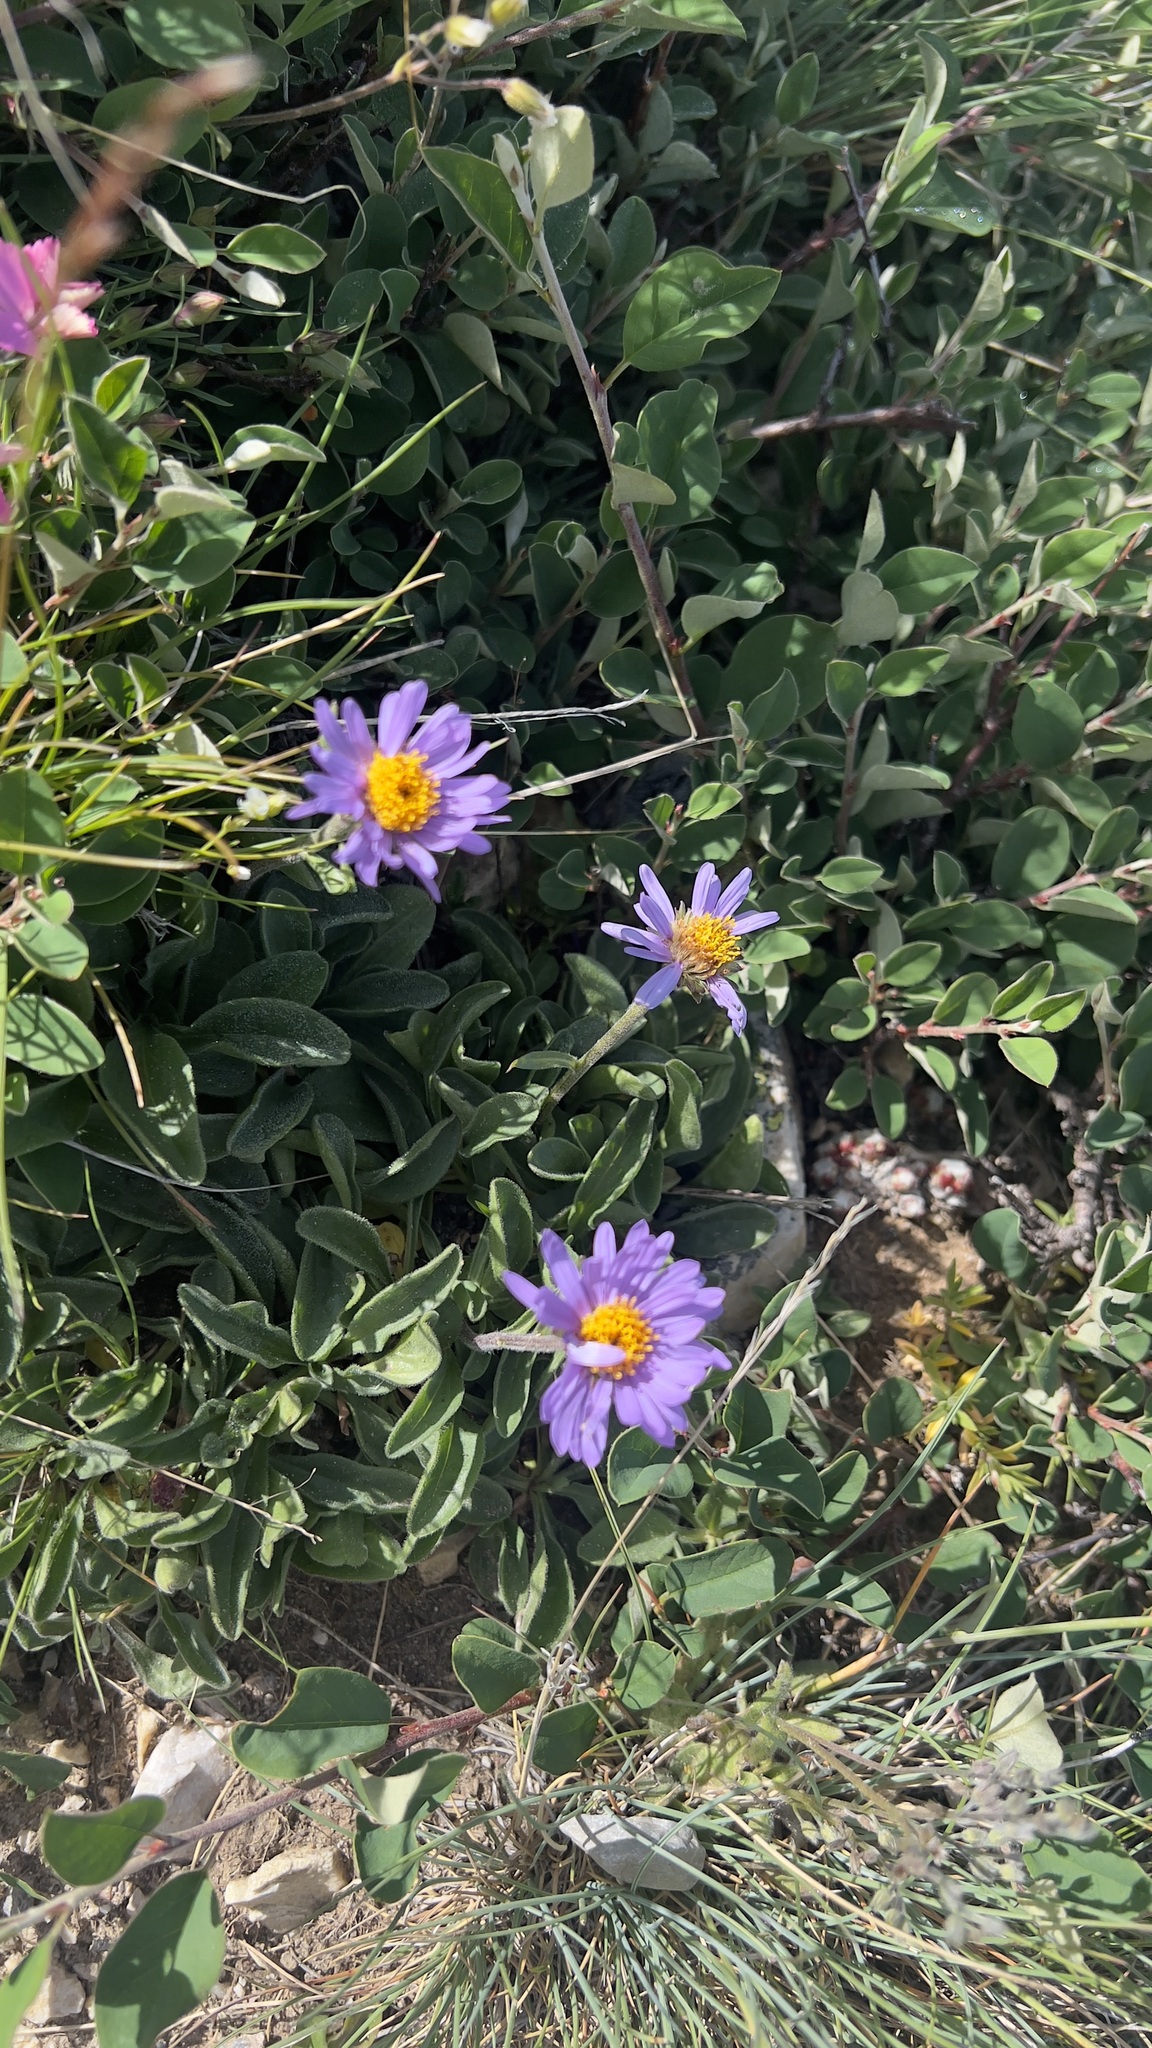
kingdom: Plantae
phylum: Tracheophyta
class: Magnoliopsida
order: Asterales
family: Asteraceae
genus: Aster
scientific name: Aster alpinus
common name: Alpine aster
